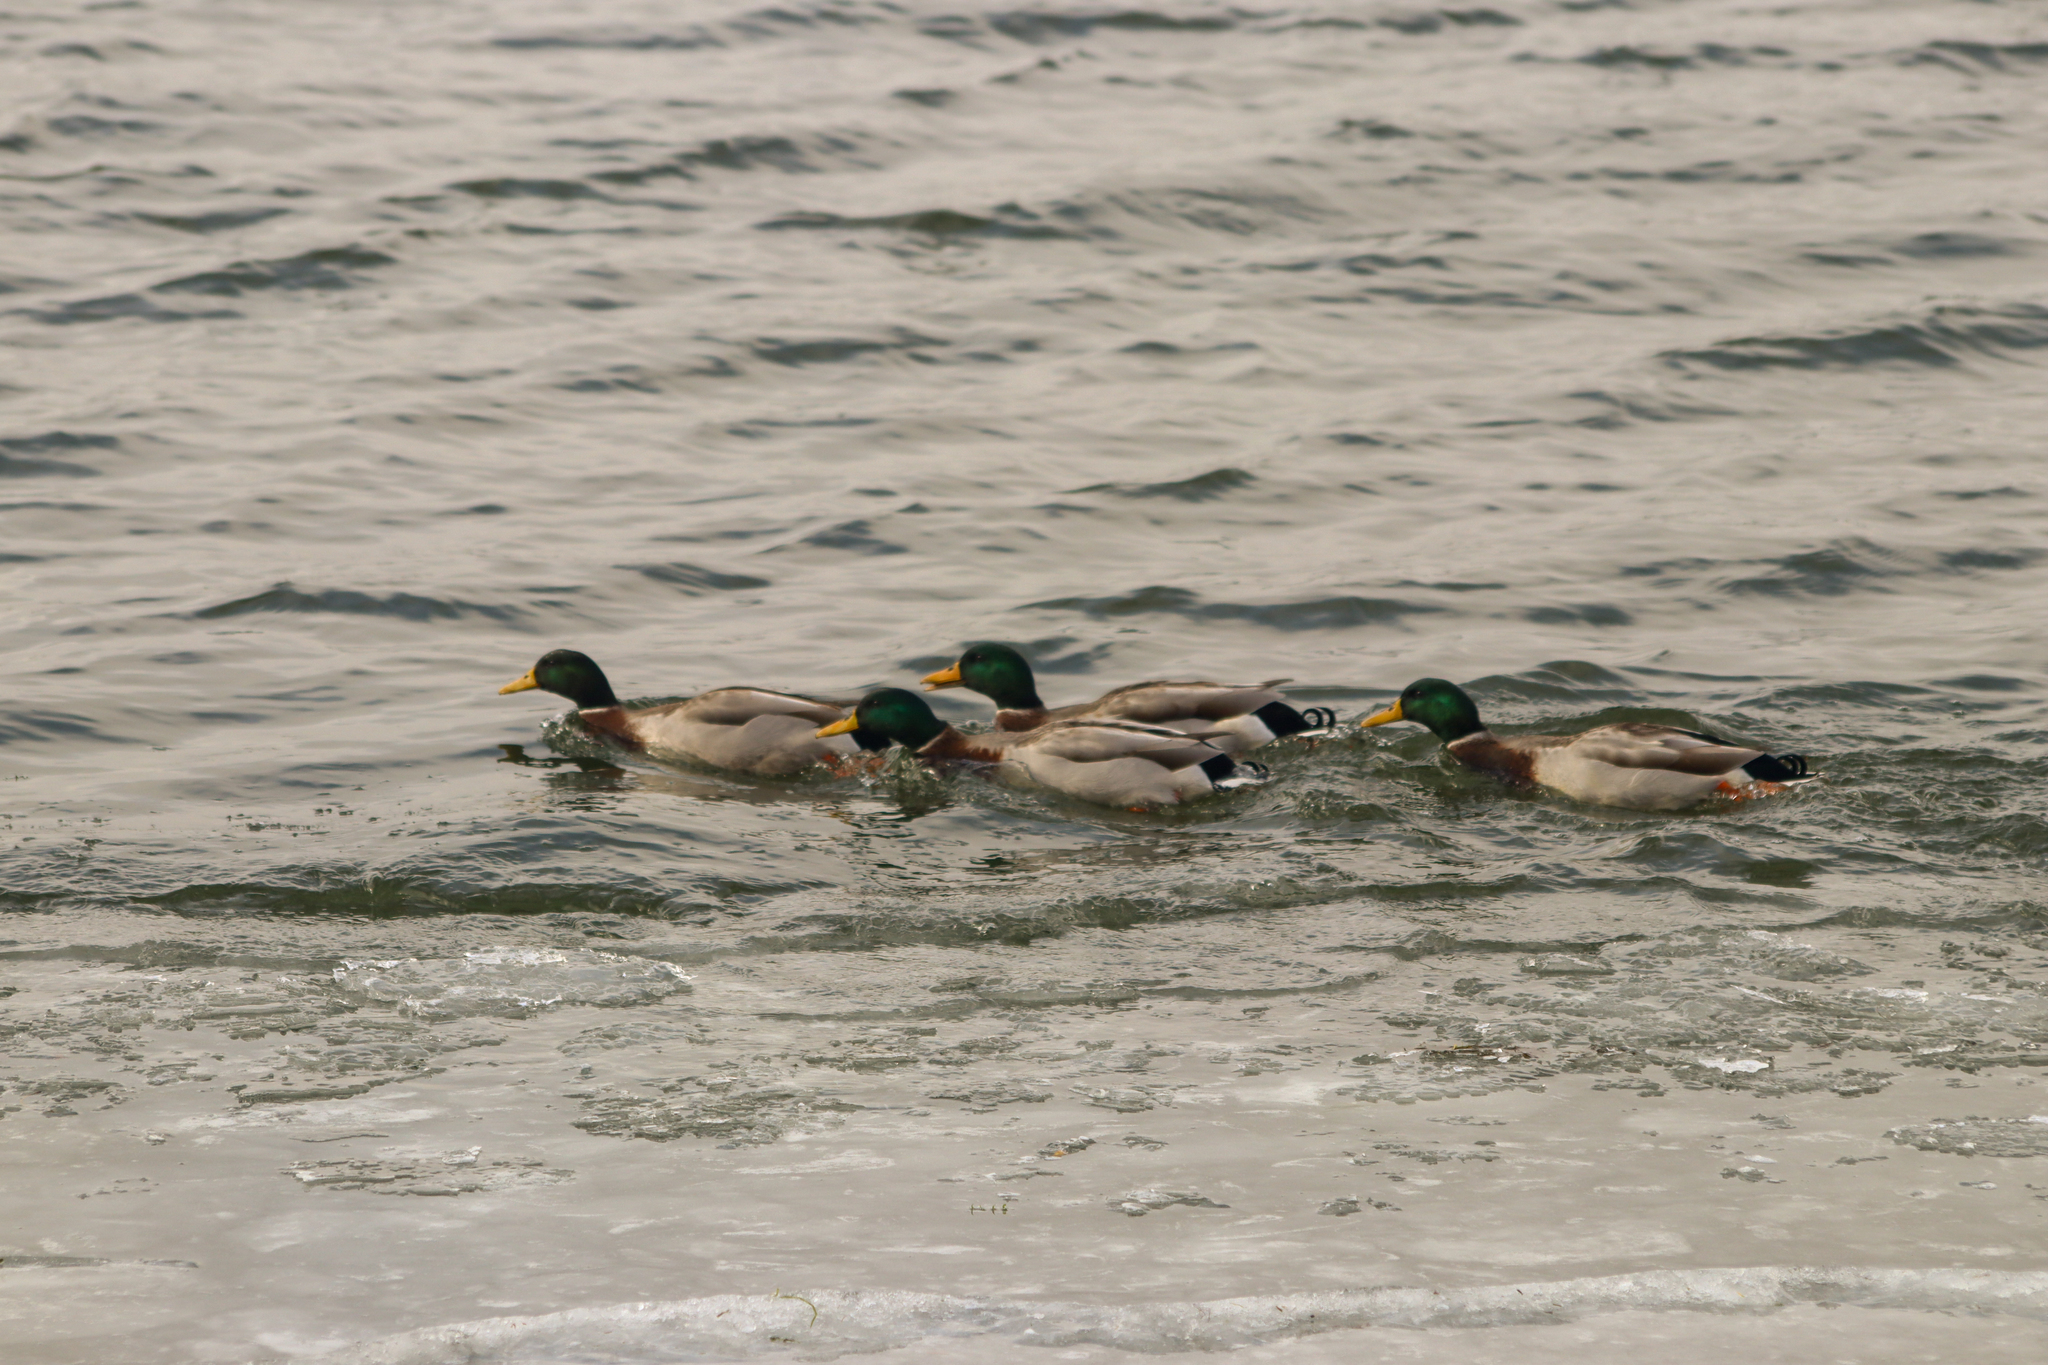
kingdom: Animalia
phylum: Chordata
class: Aves
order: Anseriformes
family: Anatidae
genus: Anas
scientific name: Anas platyrhynchos
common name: Mallard
